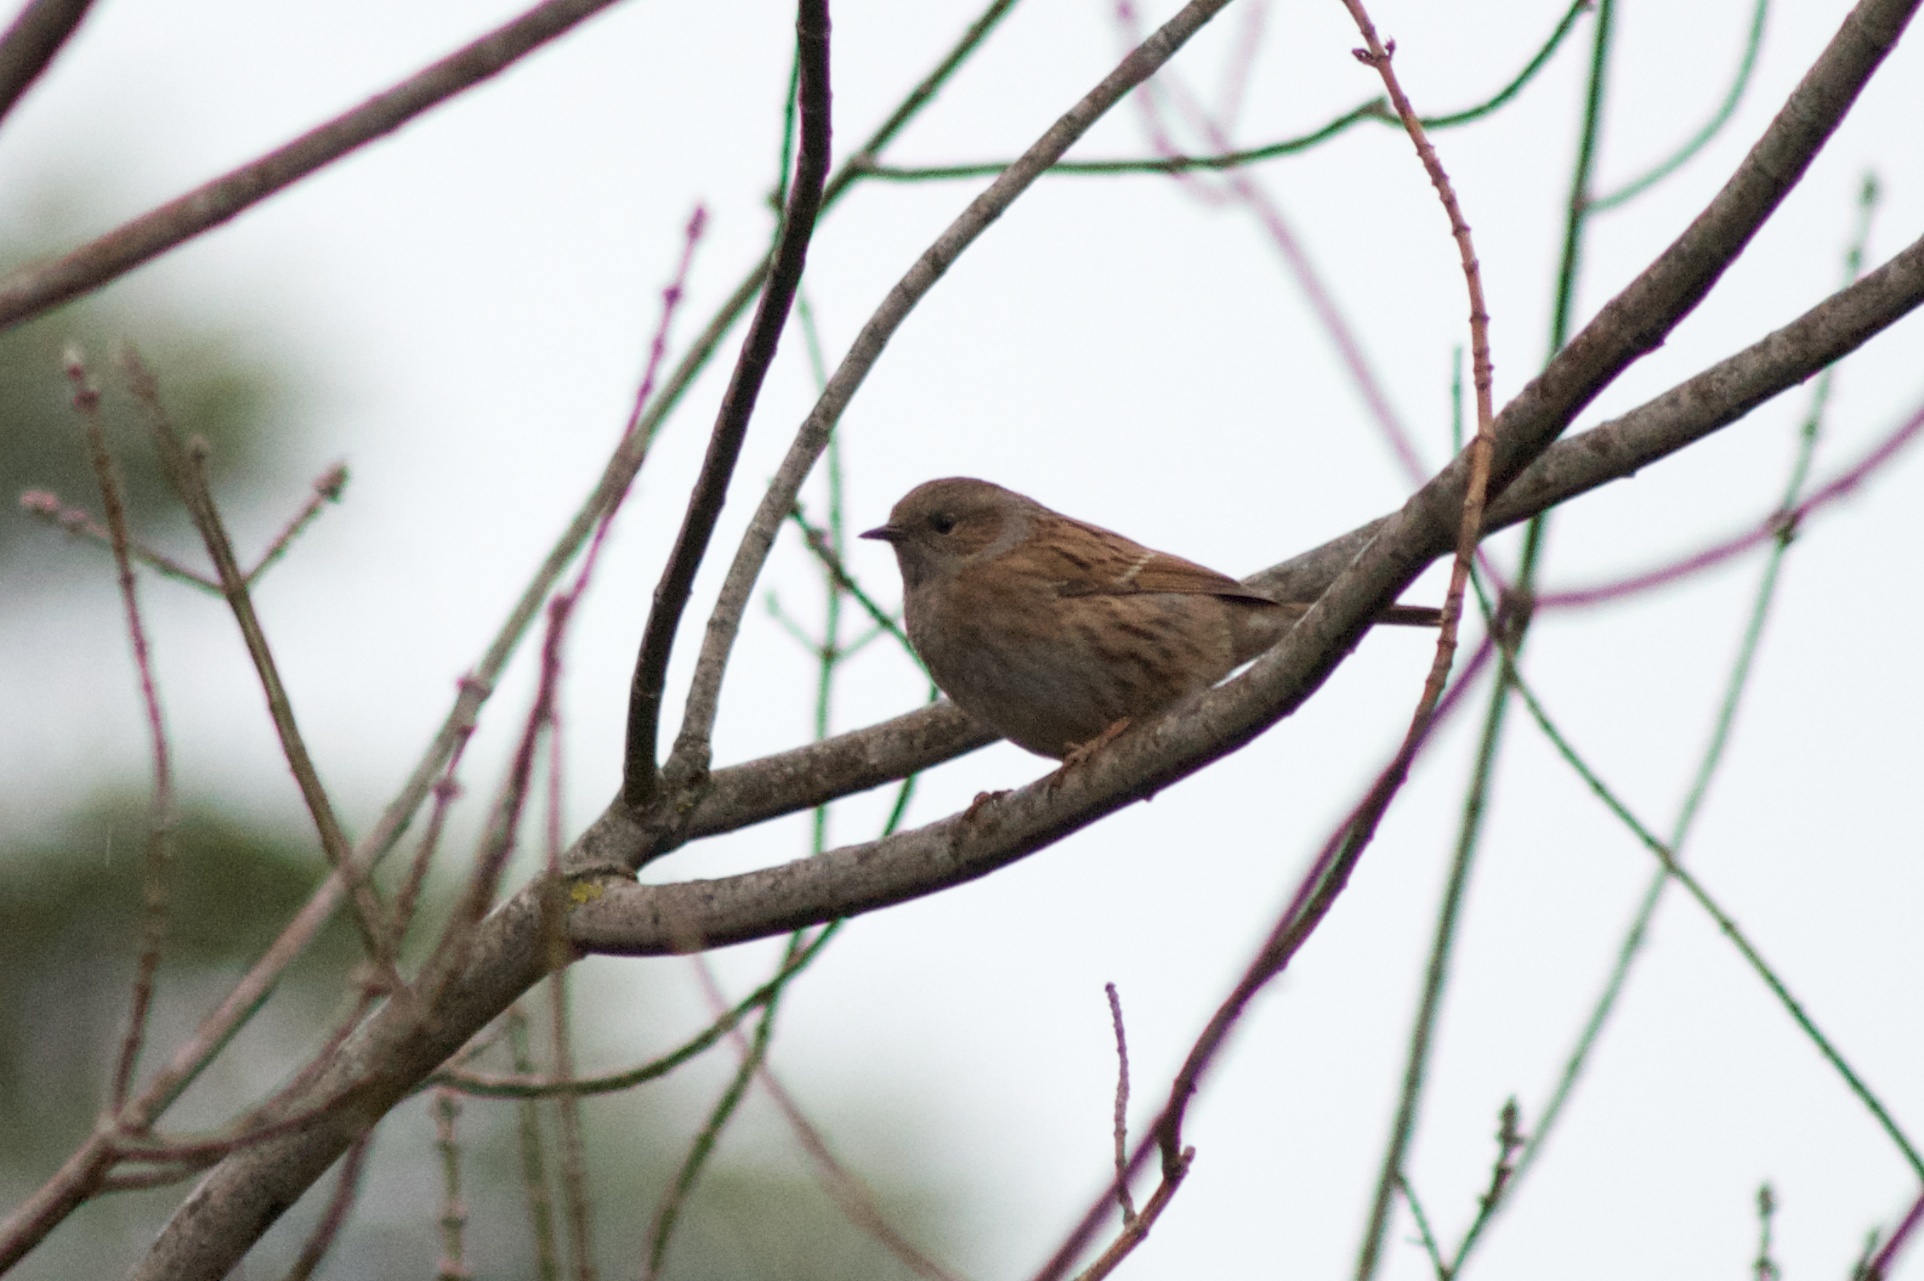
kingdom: Animalia
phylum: Chordata
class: Aves
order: Passeriformes
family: Prunellidae
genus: Prunella
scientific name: Prunella modularis
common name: Dunnock
